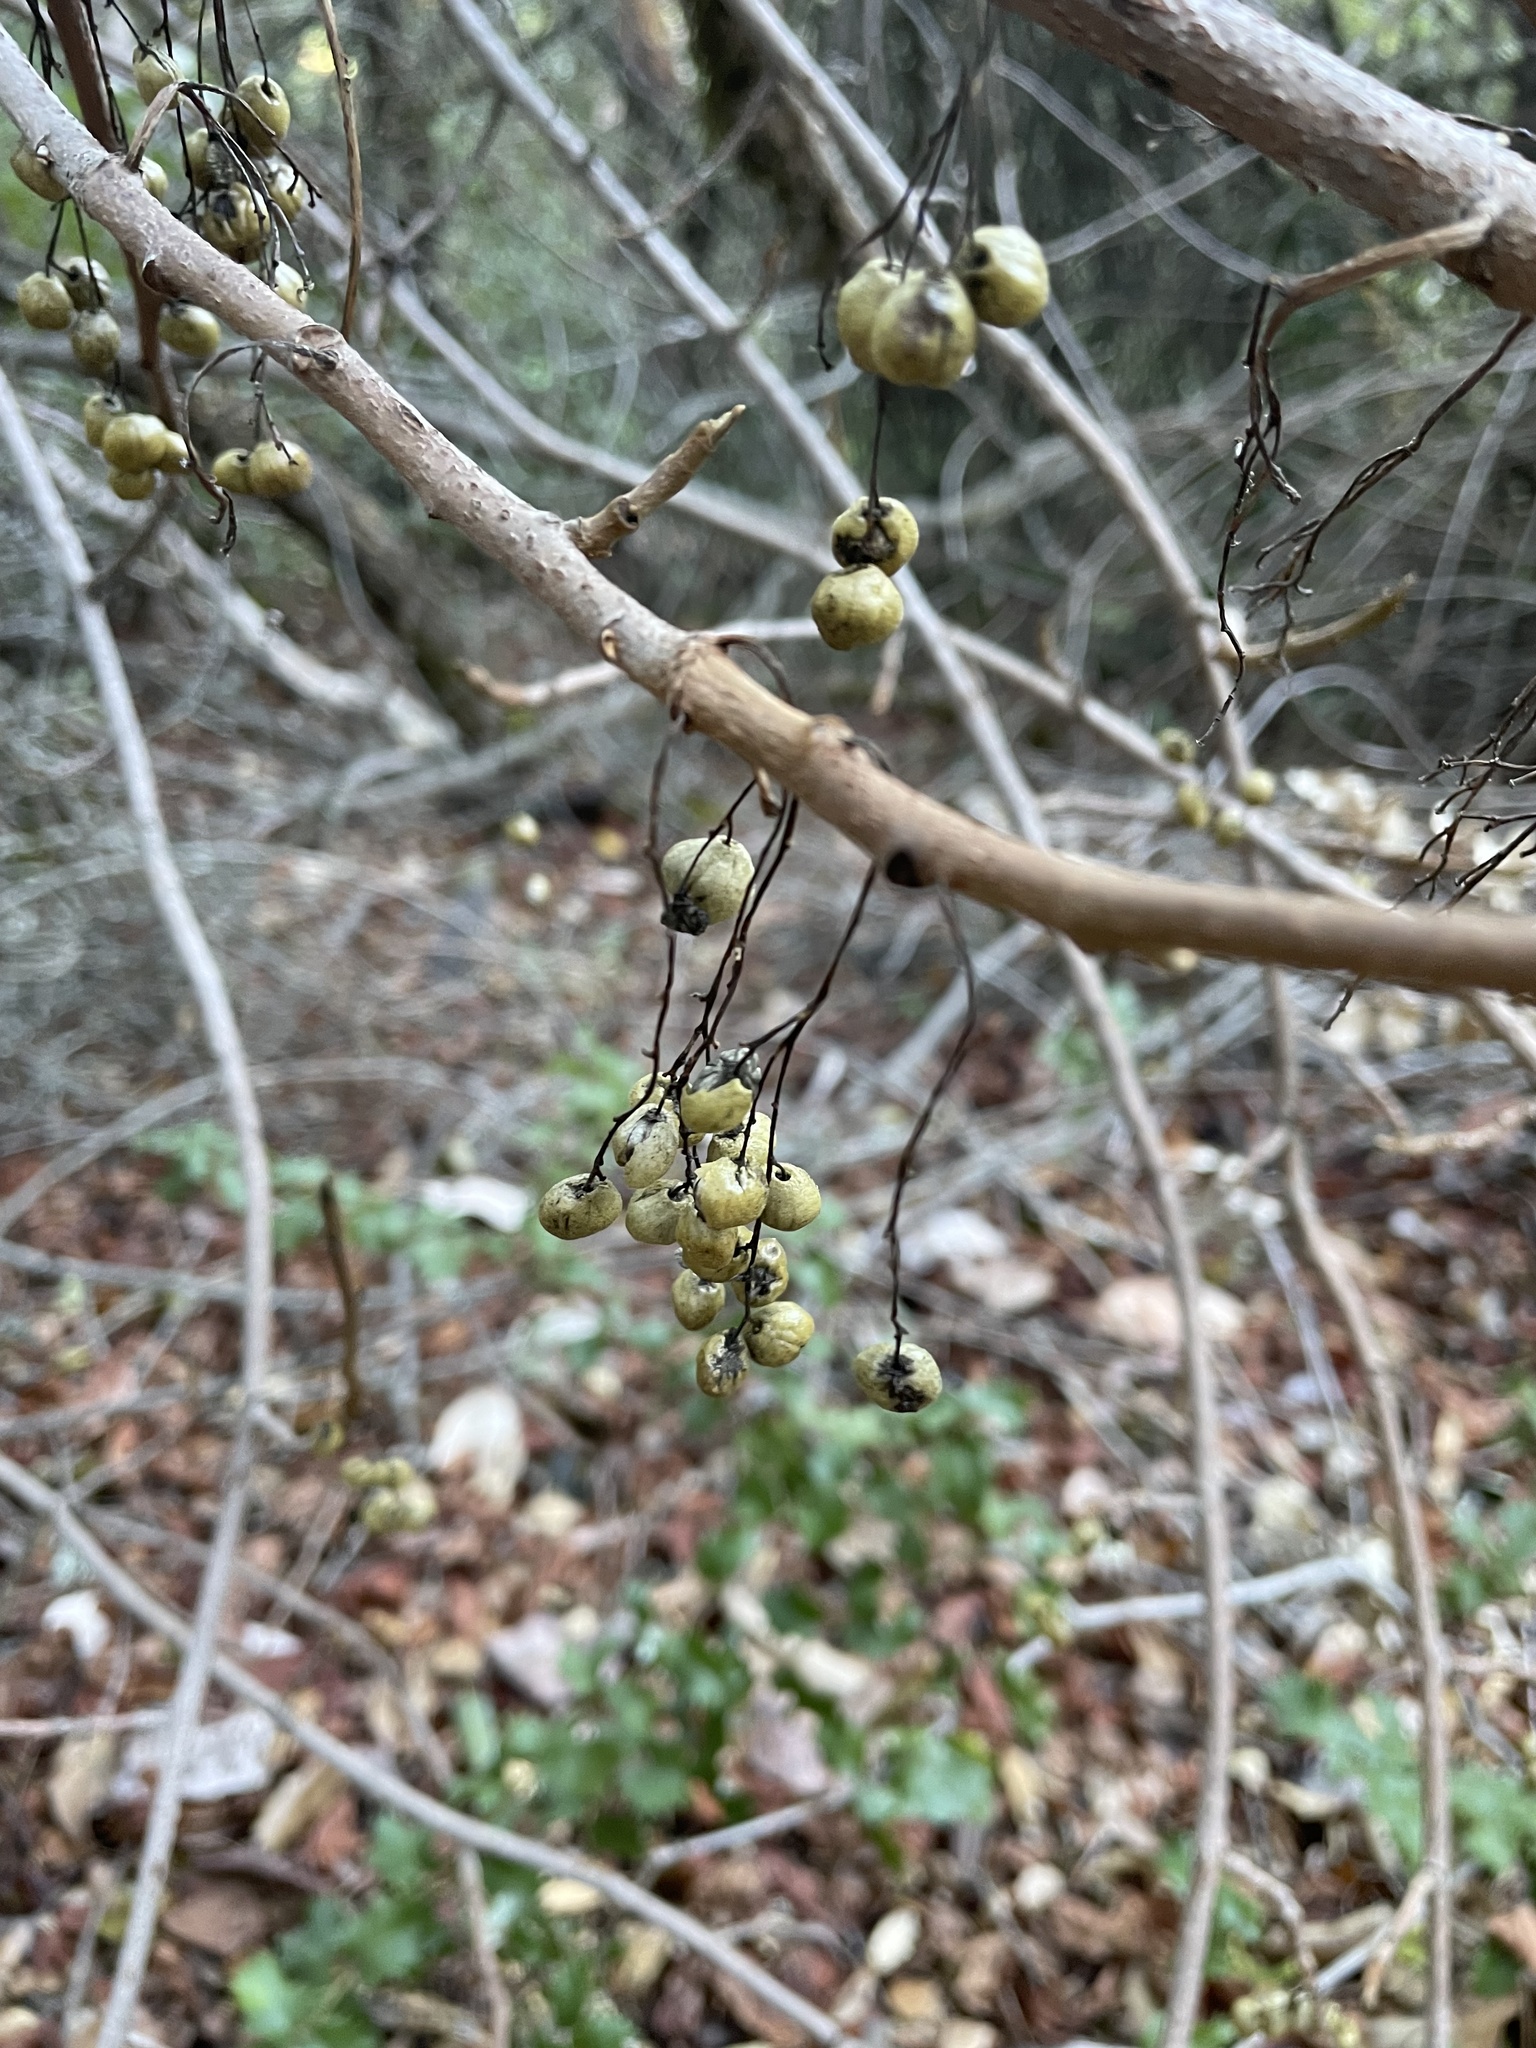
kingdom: Plantae
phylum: Tracheophyta
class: Magnoliopsida
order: Sapindales
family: Anacardiaceae
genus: Toxicodendron
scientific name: Toxicodendron diversilobum
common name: Pacific poison-oak
